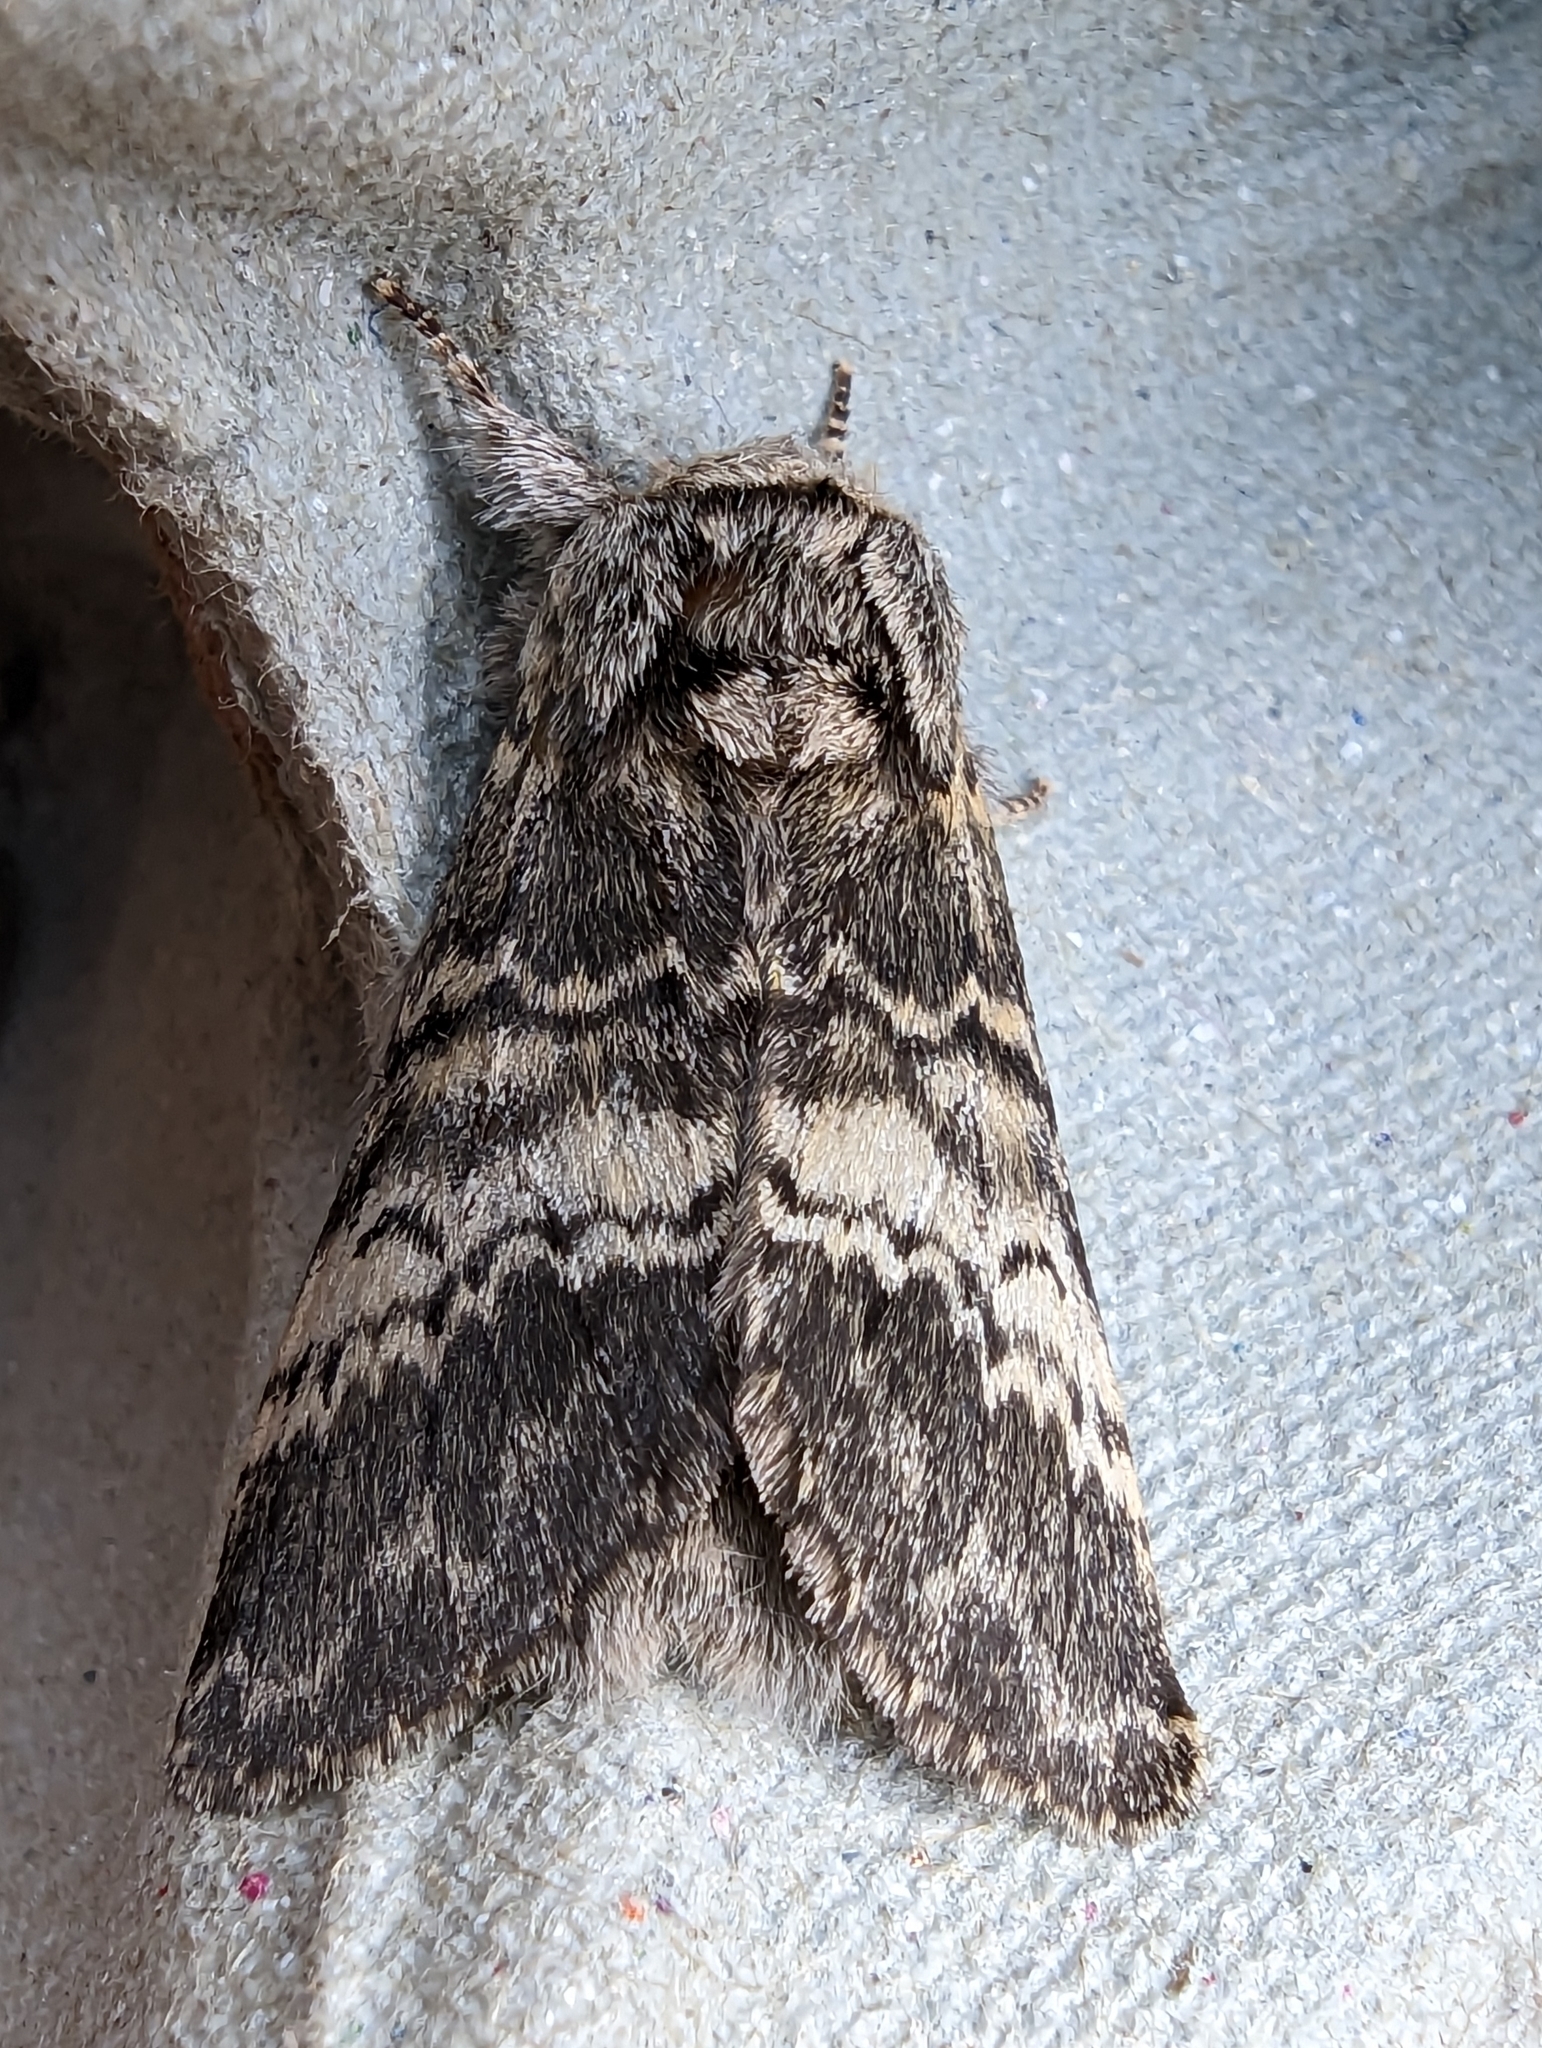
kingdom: Animalia
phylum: Arthropoda
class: Insecta
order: Lepidoptera
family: Notodontidae
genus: Drymonia
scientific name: Drymonia ruficornis
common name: Lunar marbled brown
